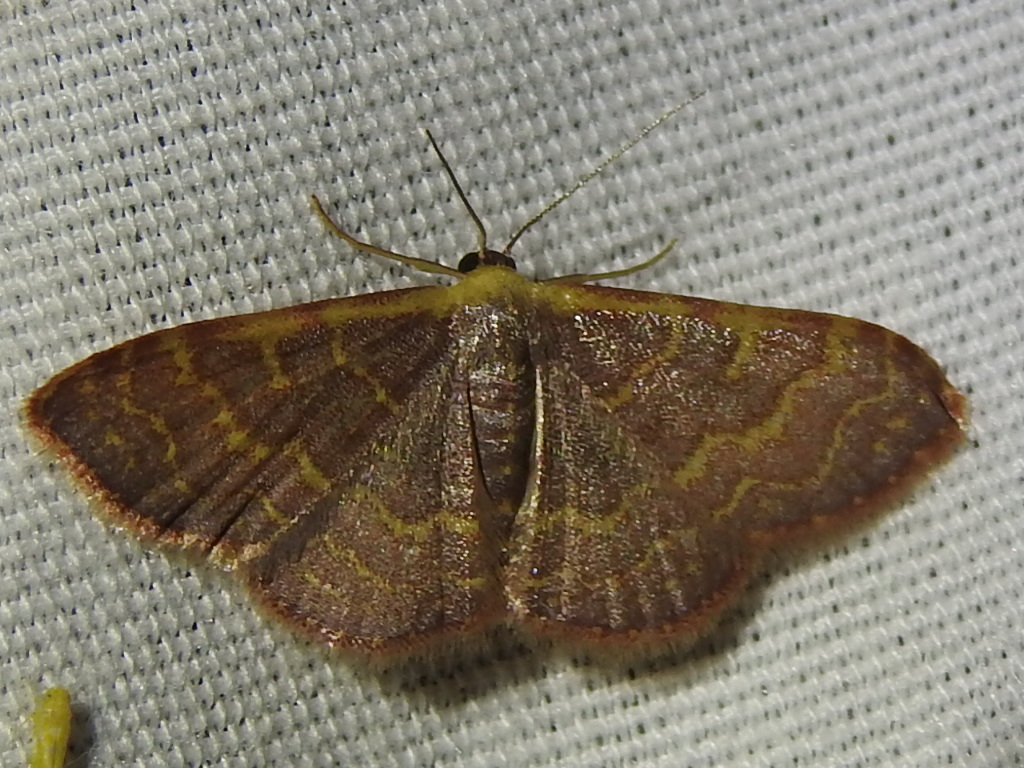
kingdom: Animalia
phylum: Arthropoda
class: Insecta
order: Lepidoptera
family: Geometridae
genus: Leptostales
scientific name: Leptostales pannaria
